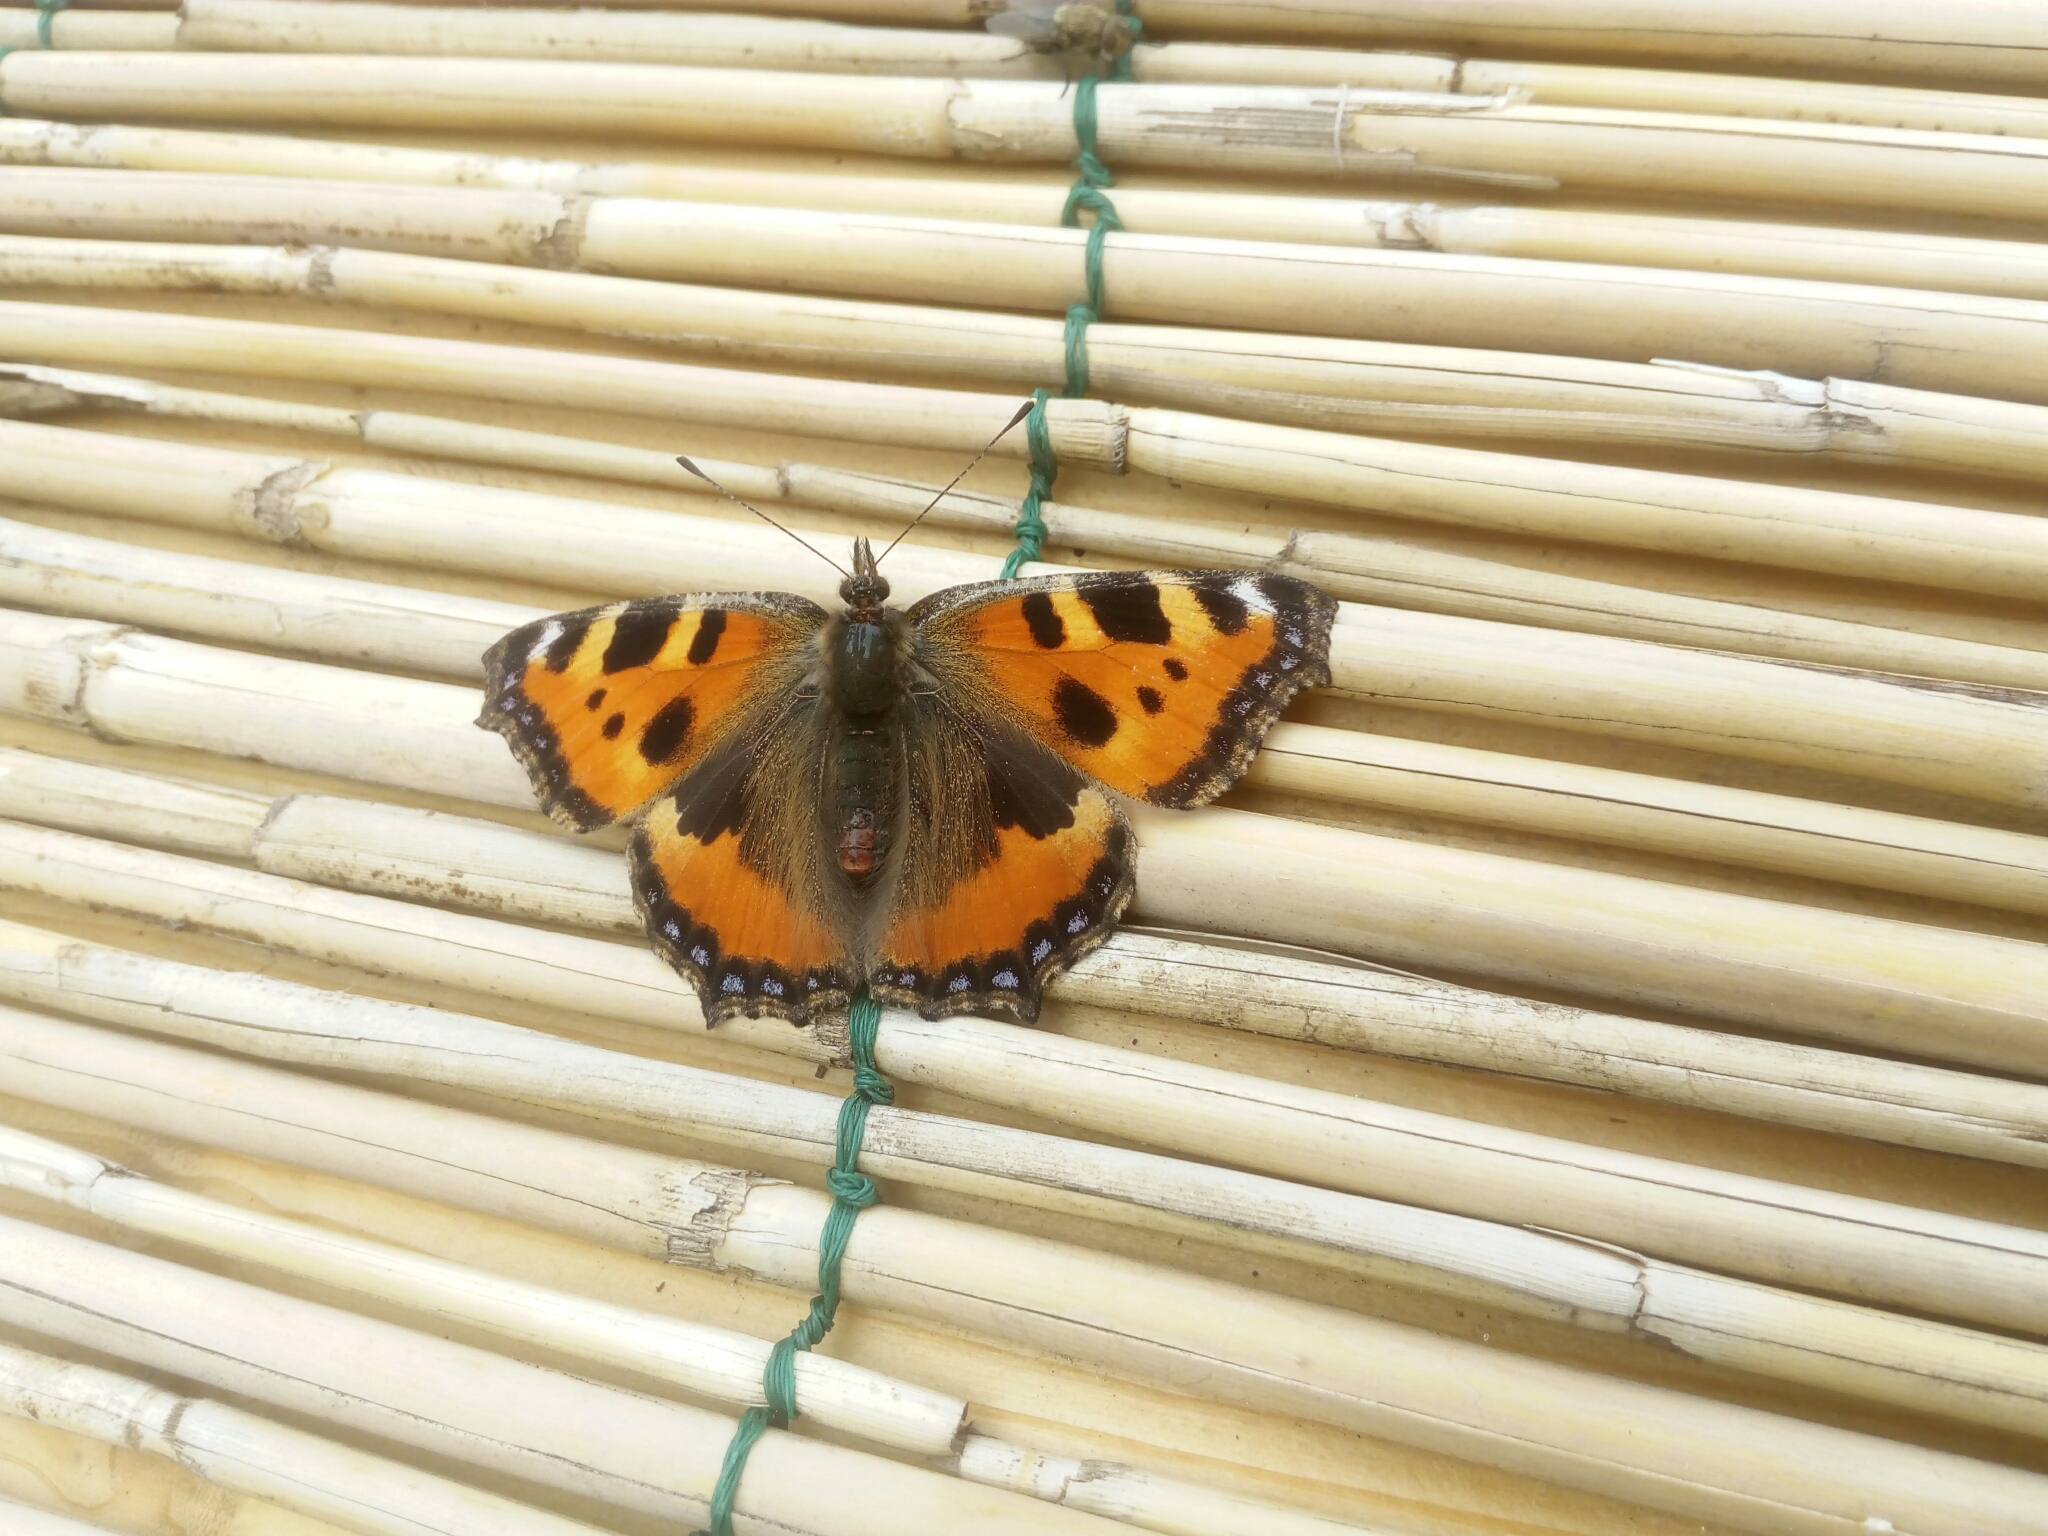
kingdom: Animalia
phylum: Arthropoda
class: Insecta
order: Lepidoptera
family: Nymphalidae
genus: Aglais
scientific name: Aglais urticae
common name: Small tortoiseshell
